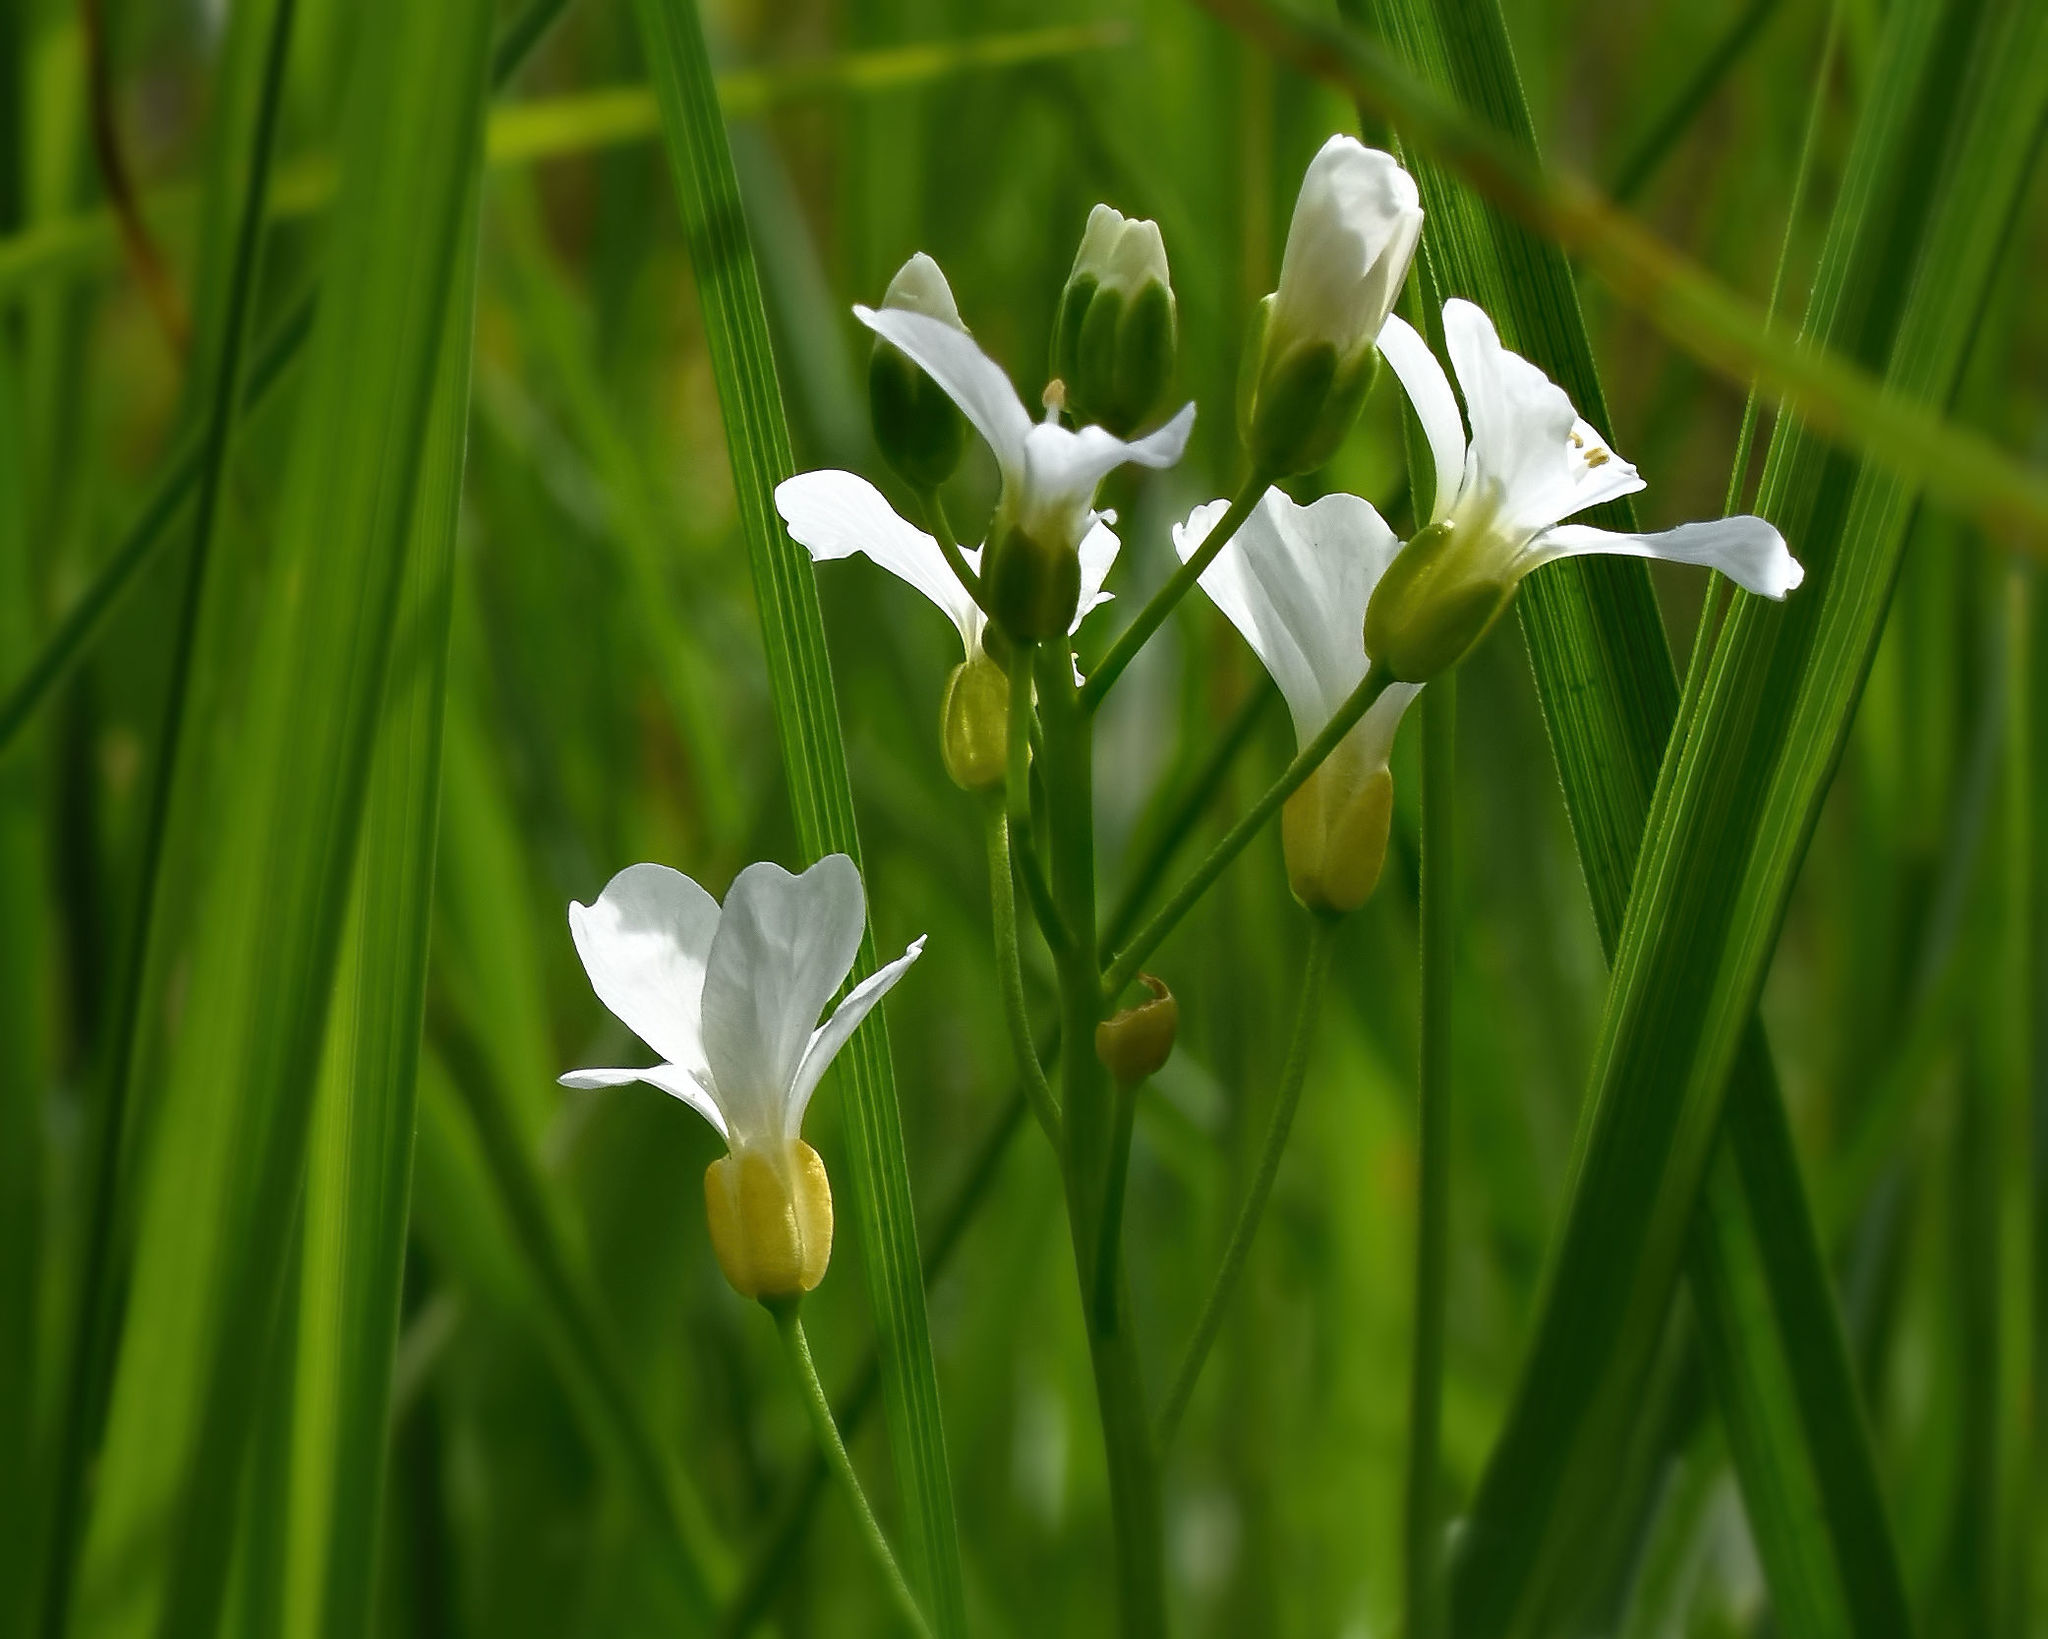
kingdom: Plantae
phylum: Tracheophyta
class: Magnoliopsida
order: Brassicales
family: Brassicaceae
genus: Cardamine
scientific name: Cardamine bulbosa
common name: Spring cress
